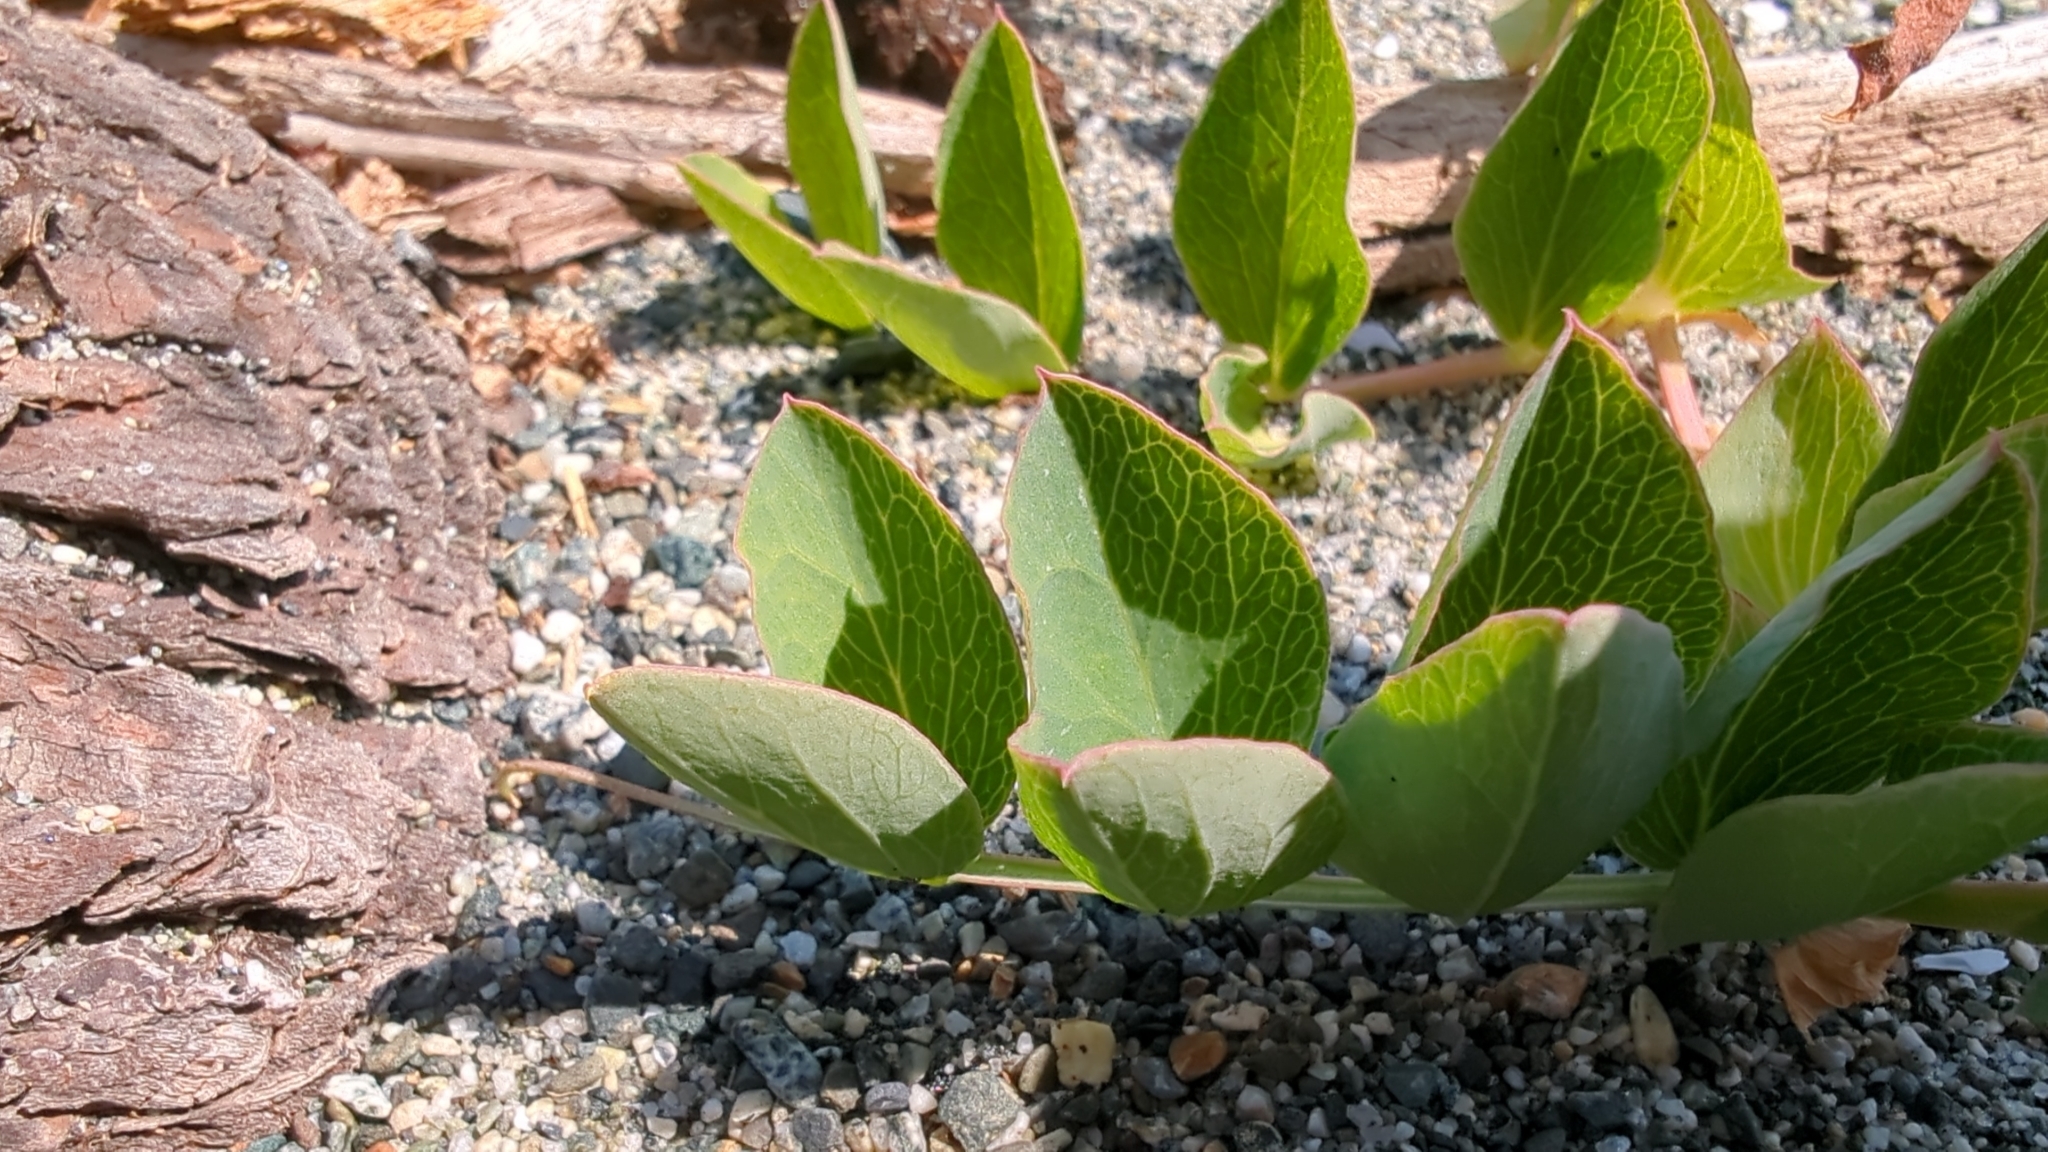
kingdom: Plantae
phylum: Tracheophyta
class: Magnoliopsida
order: Fabales
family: Fabaceae
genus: Lathyrus
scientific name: Lathyrus japonicus
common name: Sea pea
